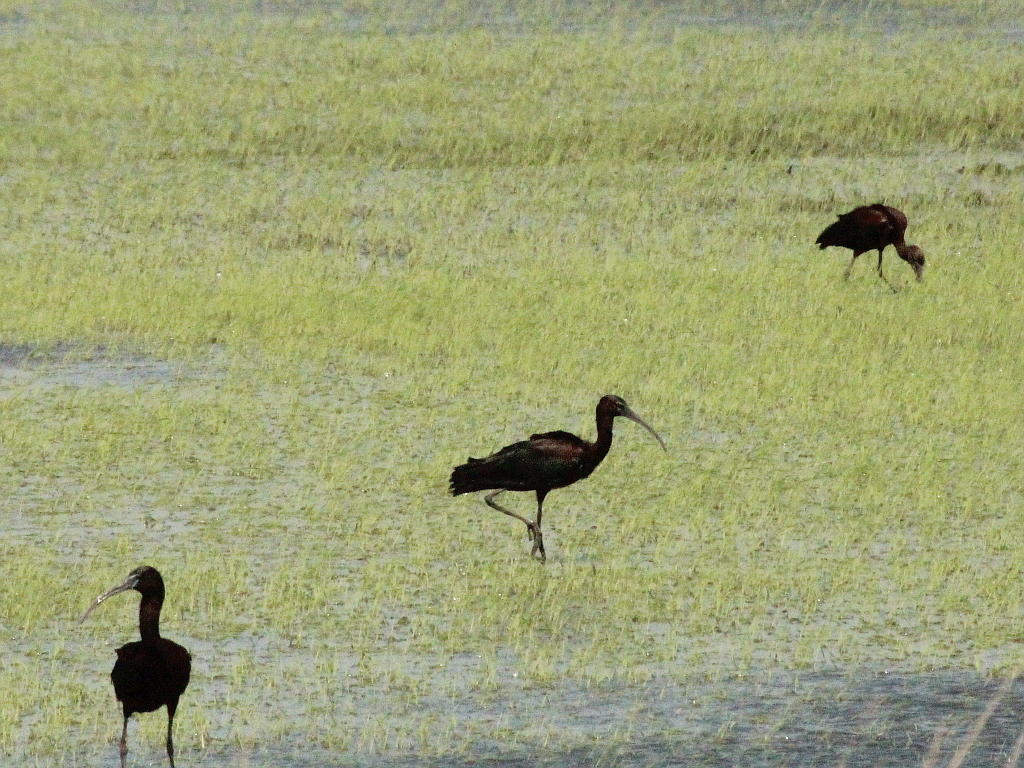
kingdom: Animalia
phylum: Chordata
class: Aves
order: Pelecaniformes
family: Threskiornithidae
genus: Plegadis
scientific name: Plegadis falcinellus
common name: Glossy ibis
